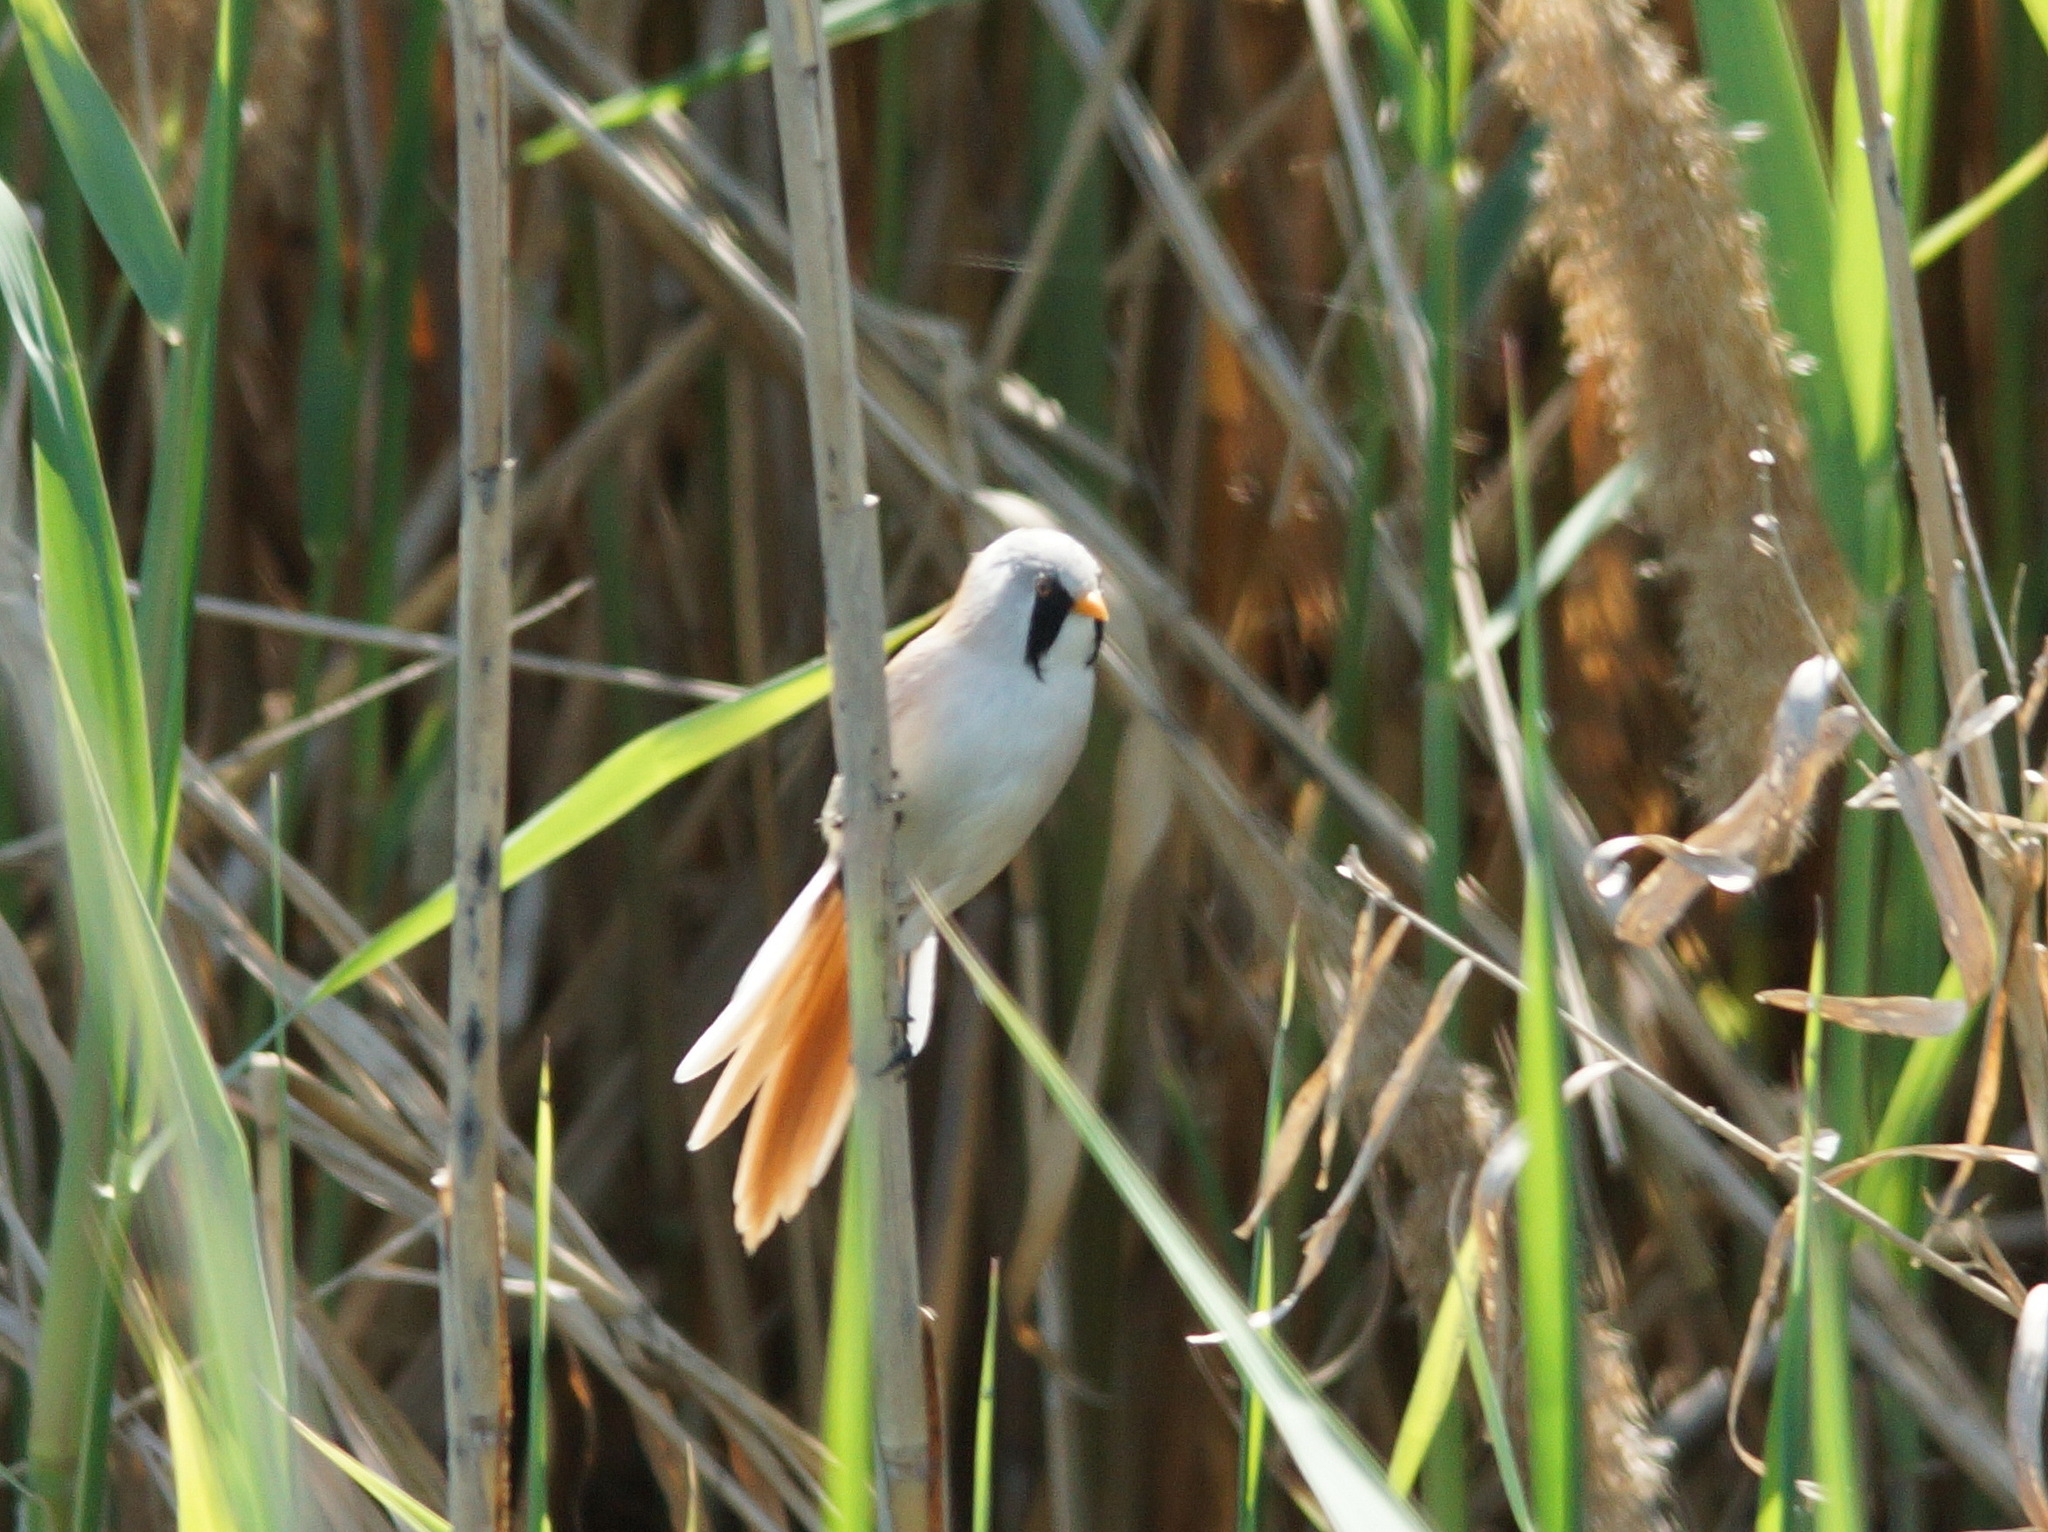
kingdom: Animalia
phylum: Chordata
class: Aves
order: Passeriformes
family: Panuridae
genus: Panurus
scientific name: Panurus biarmicus
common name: Bearded reedling
